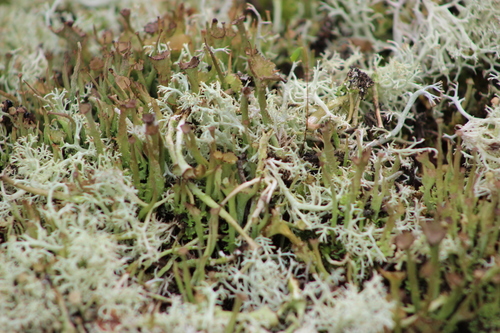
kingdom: Fungi
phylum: Ascomycota
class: Lecanoromycetes
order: Lecanorales
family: Cladoniaceae
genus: Cladonia
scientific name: Cladonia gracilis
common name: Smooth clad lichen
